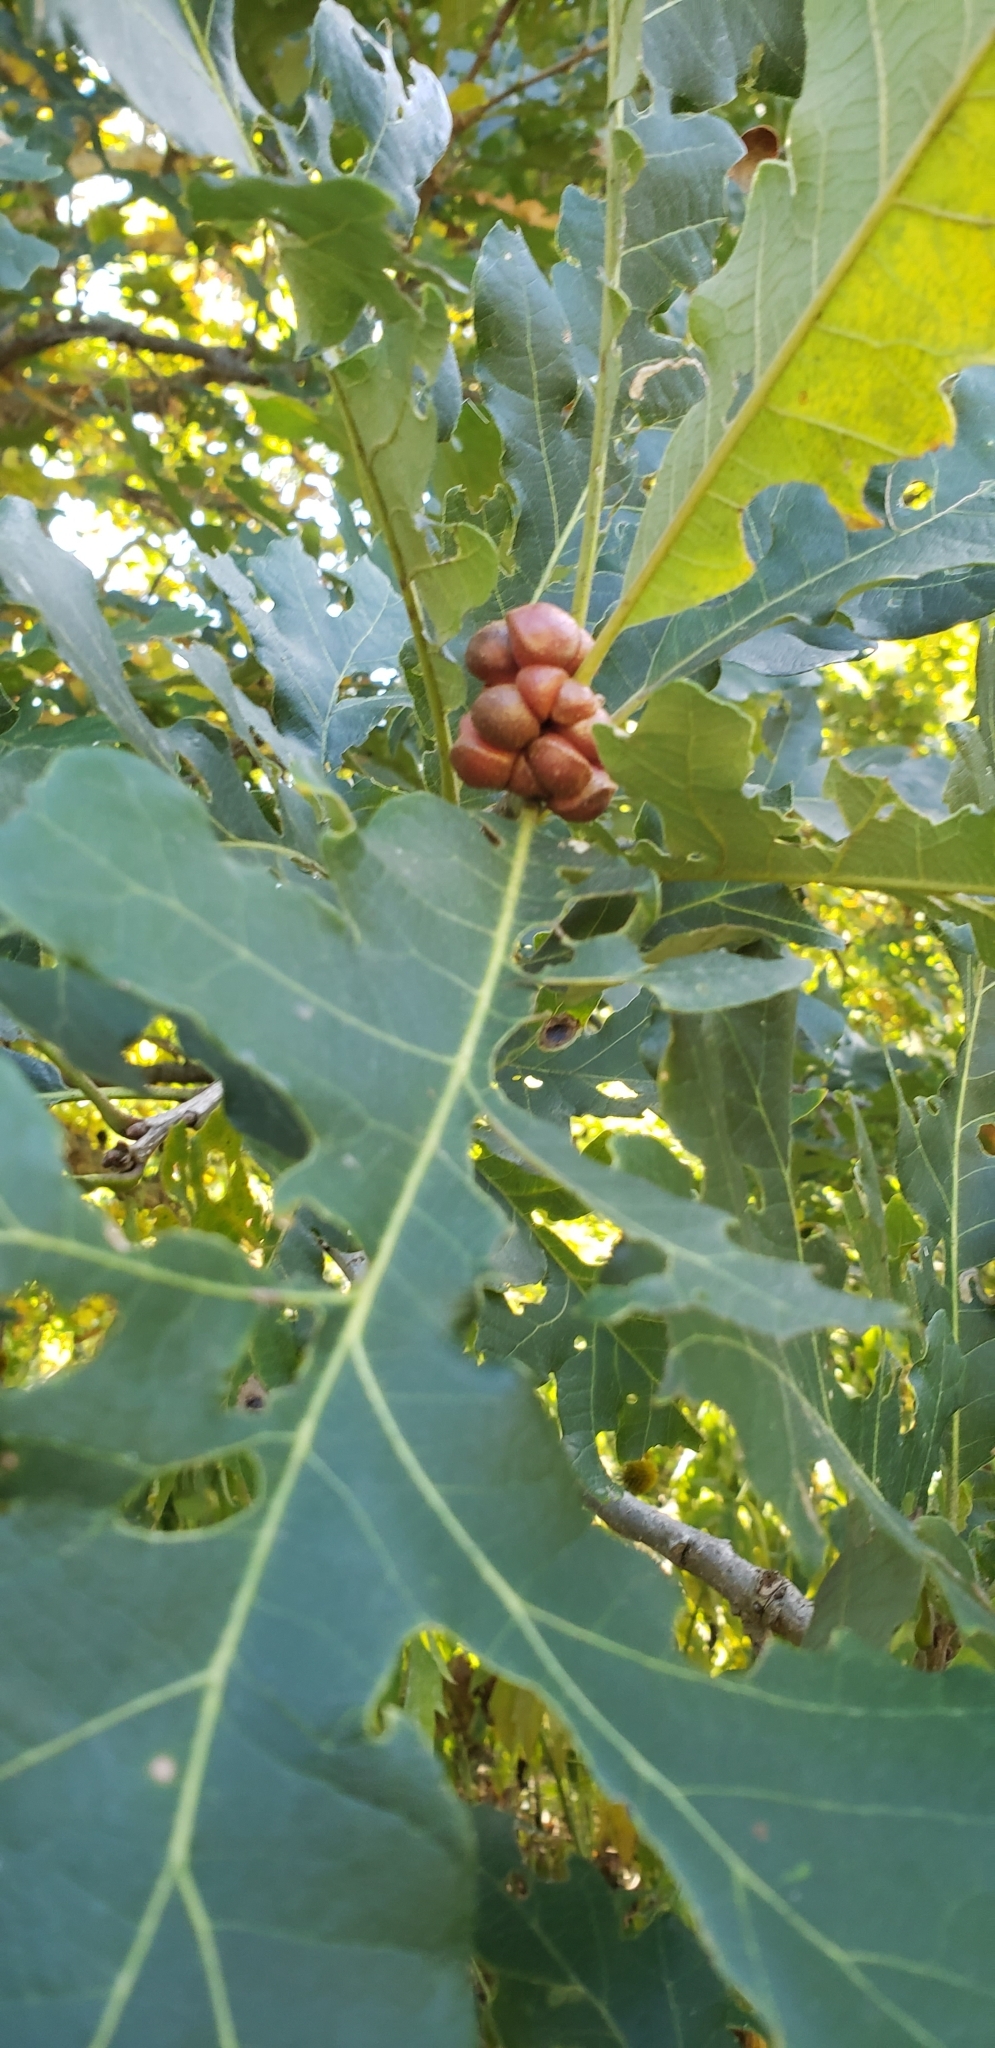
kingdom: Animalia
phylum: Arthropoda
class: Insecta
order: Hymenoptera
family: Cynipidae
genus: Andricus
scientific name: Andricus
